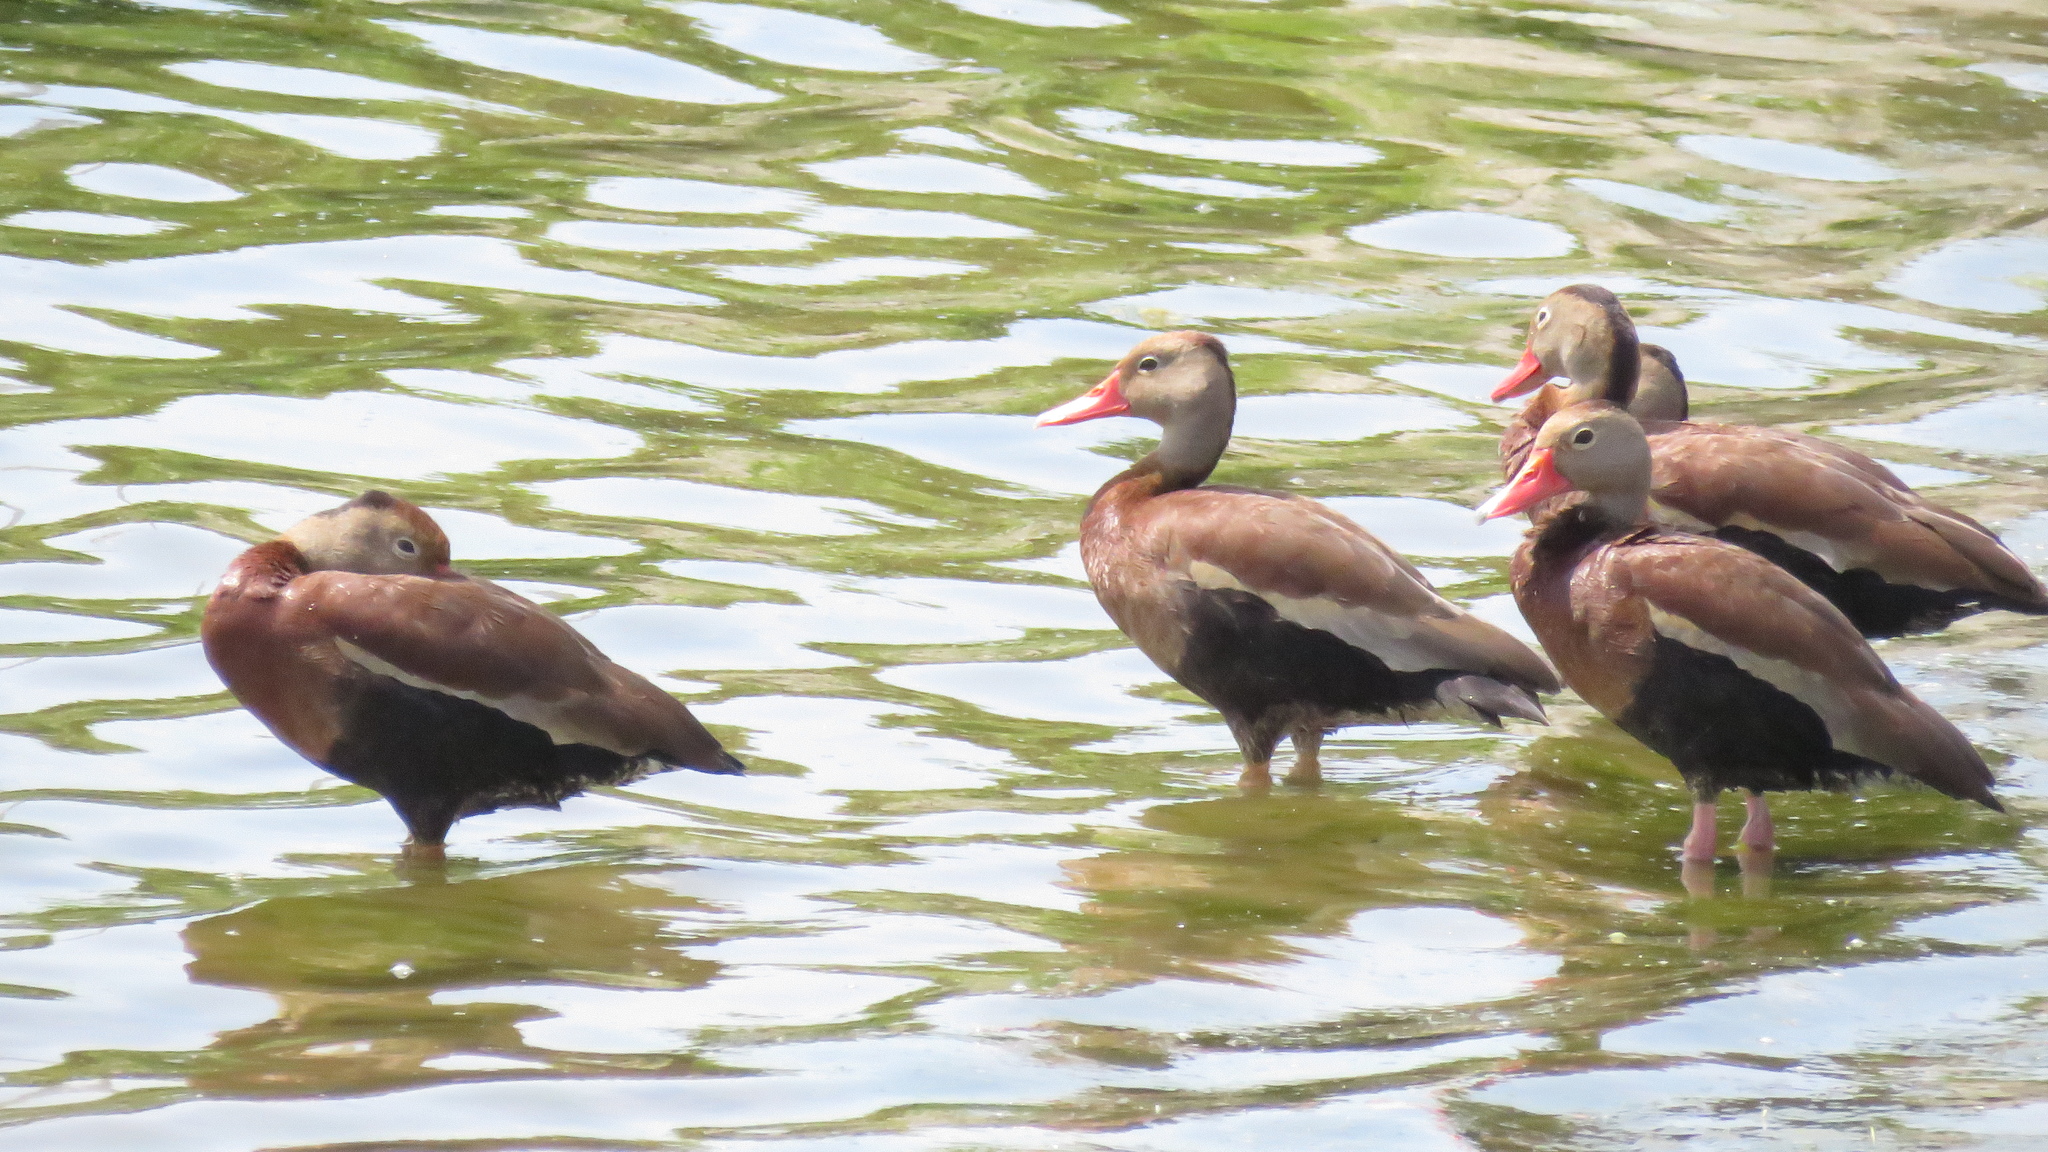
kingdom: Animalia
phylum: Chordata
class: Aves
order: Anseriformes
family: Anatidae
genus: Dendrocygna
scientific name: Dendrocygna autumnalis
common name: Black-bellied whistling duck
